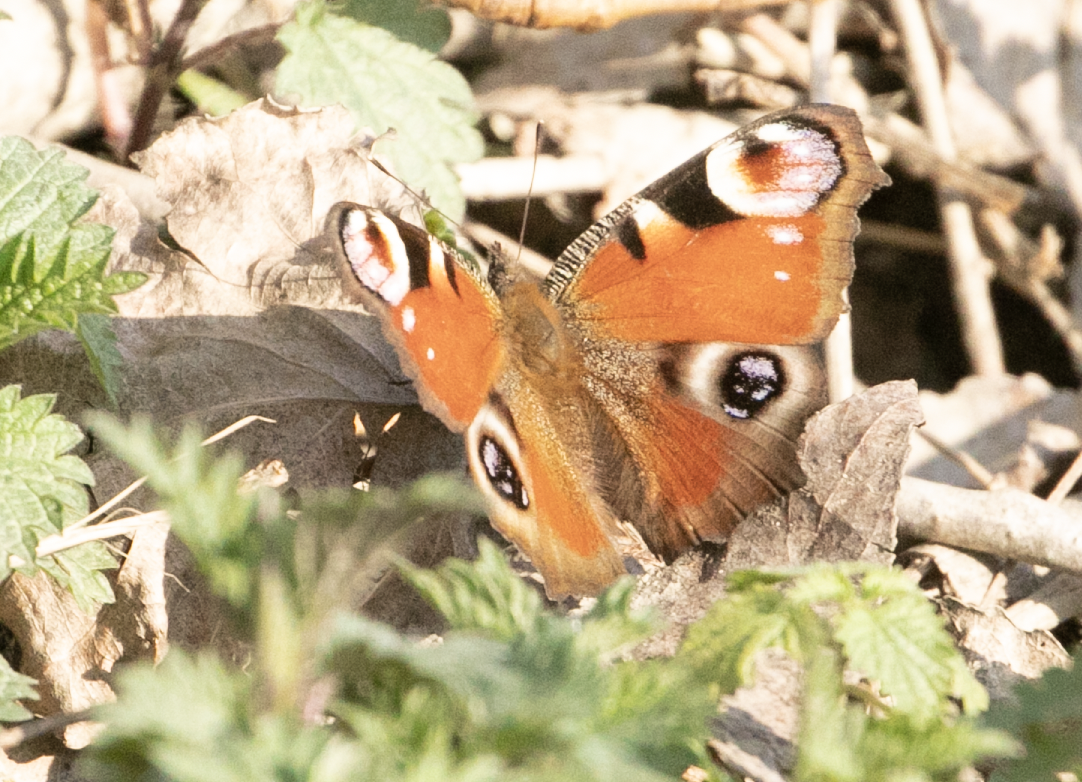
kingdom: Animalia
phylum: Arthropoda
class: Insecta
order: Lepidoptera
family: Nymphalidae
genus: Aglais
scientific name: Aglais io
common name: Peacock
